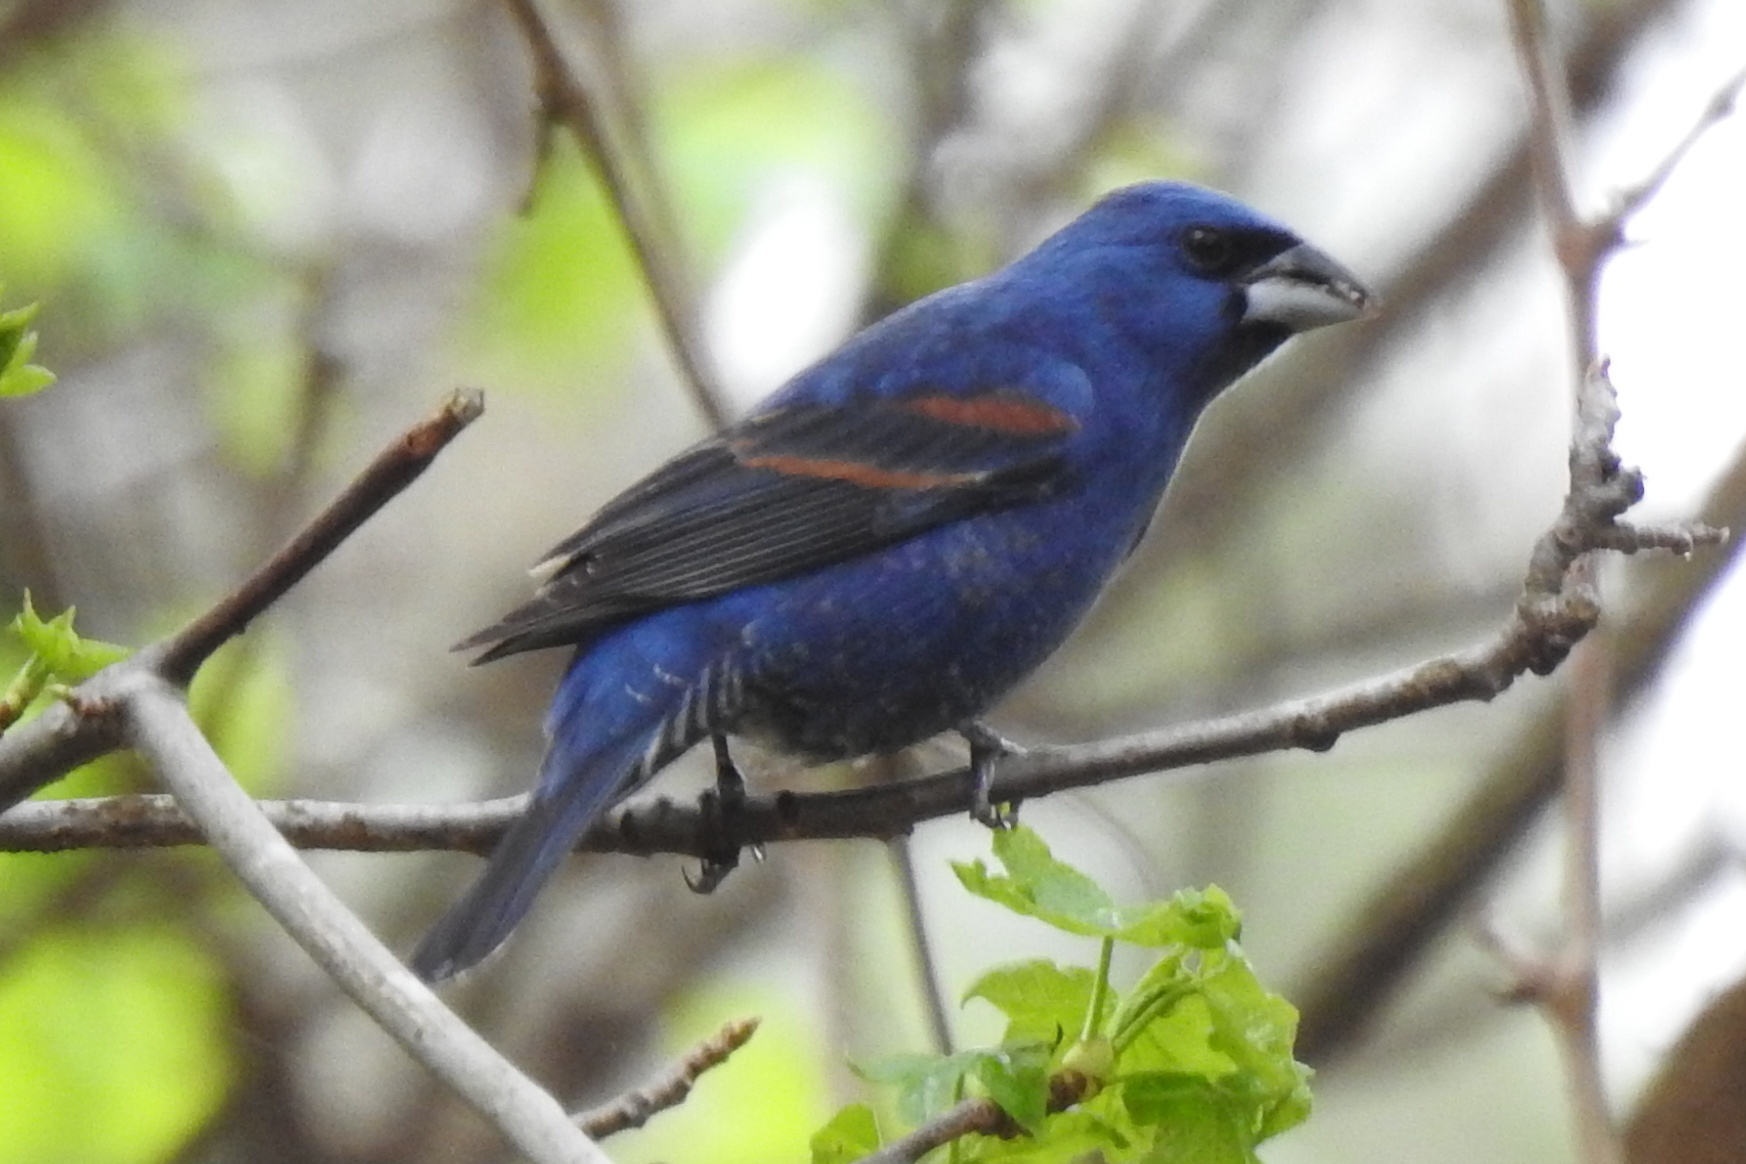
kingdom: Animalia
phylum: Chordata
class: Aves
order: Passeriformes
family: Cardinalidae
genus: Passerina
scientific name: Passerina caerulea
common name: Blue grosbeak
